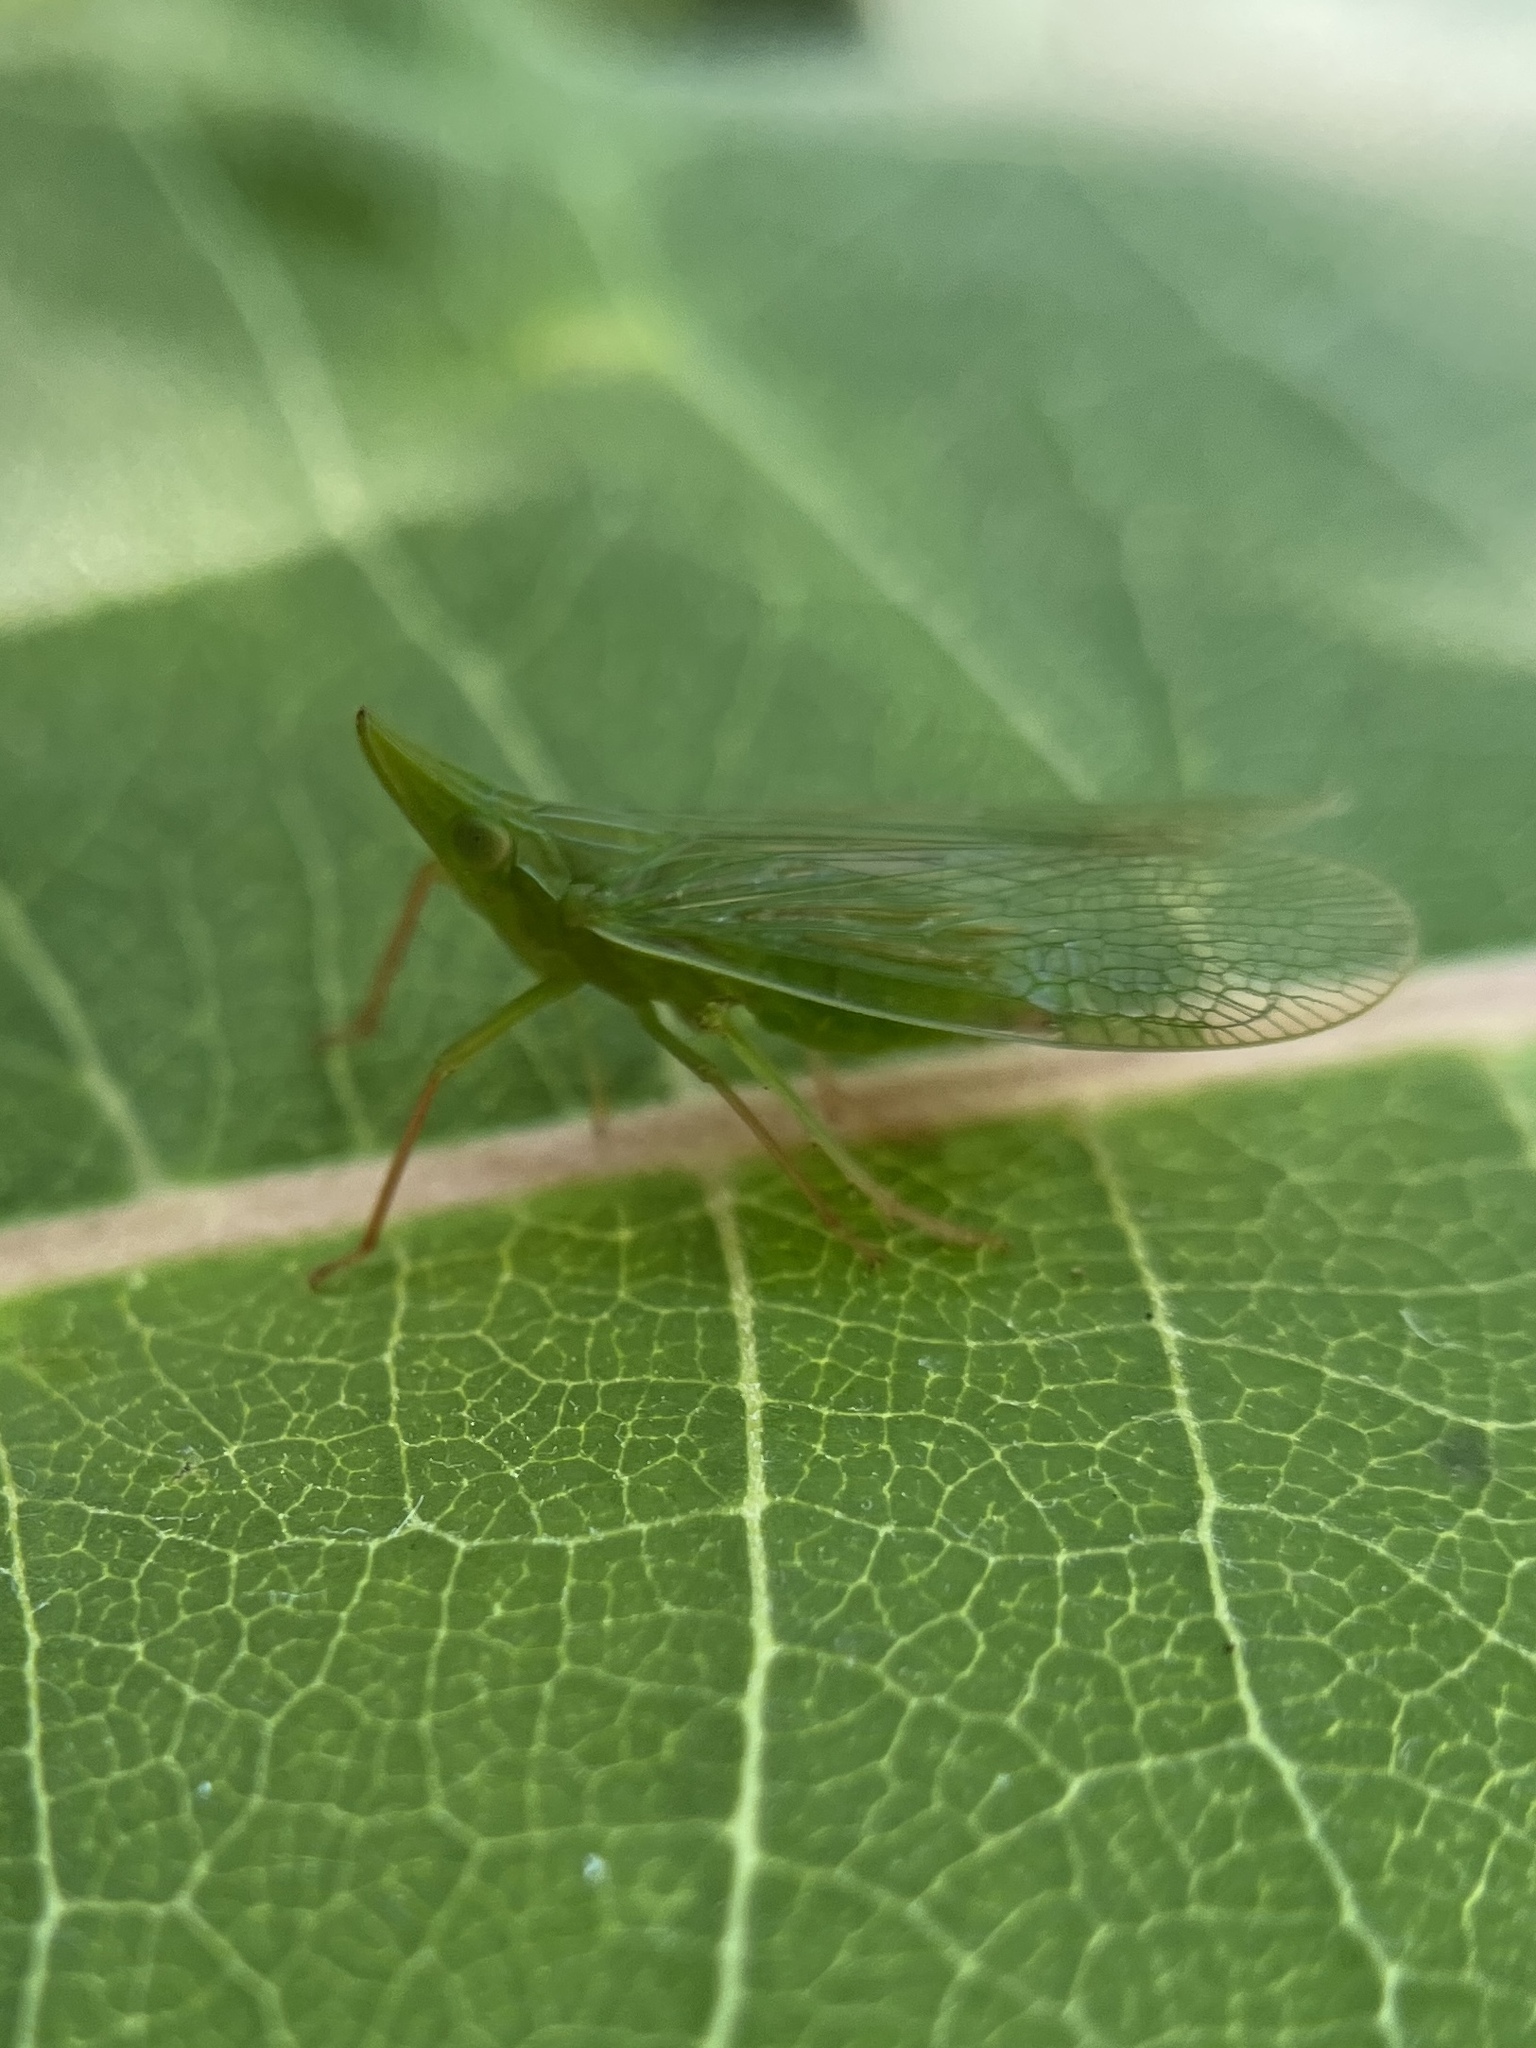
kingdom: Animalia
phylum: Arthropoda
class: Insecta
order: Hemiptera
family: Dictyopharidae
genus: Rhynchomitra
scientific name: Rhynchomitra microrhina
